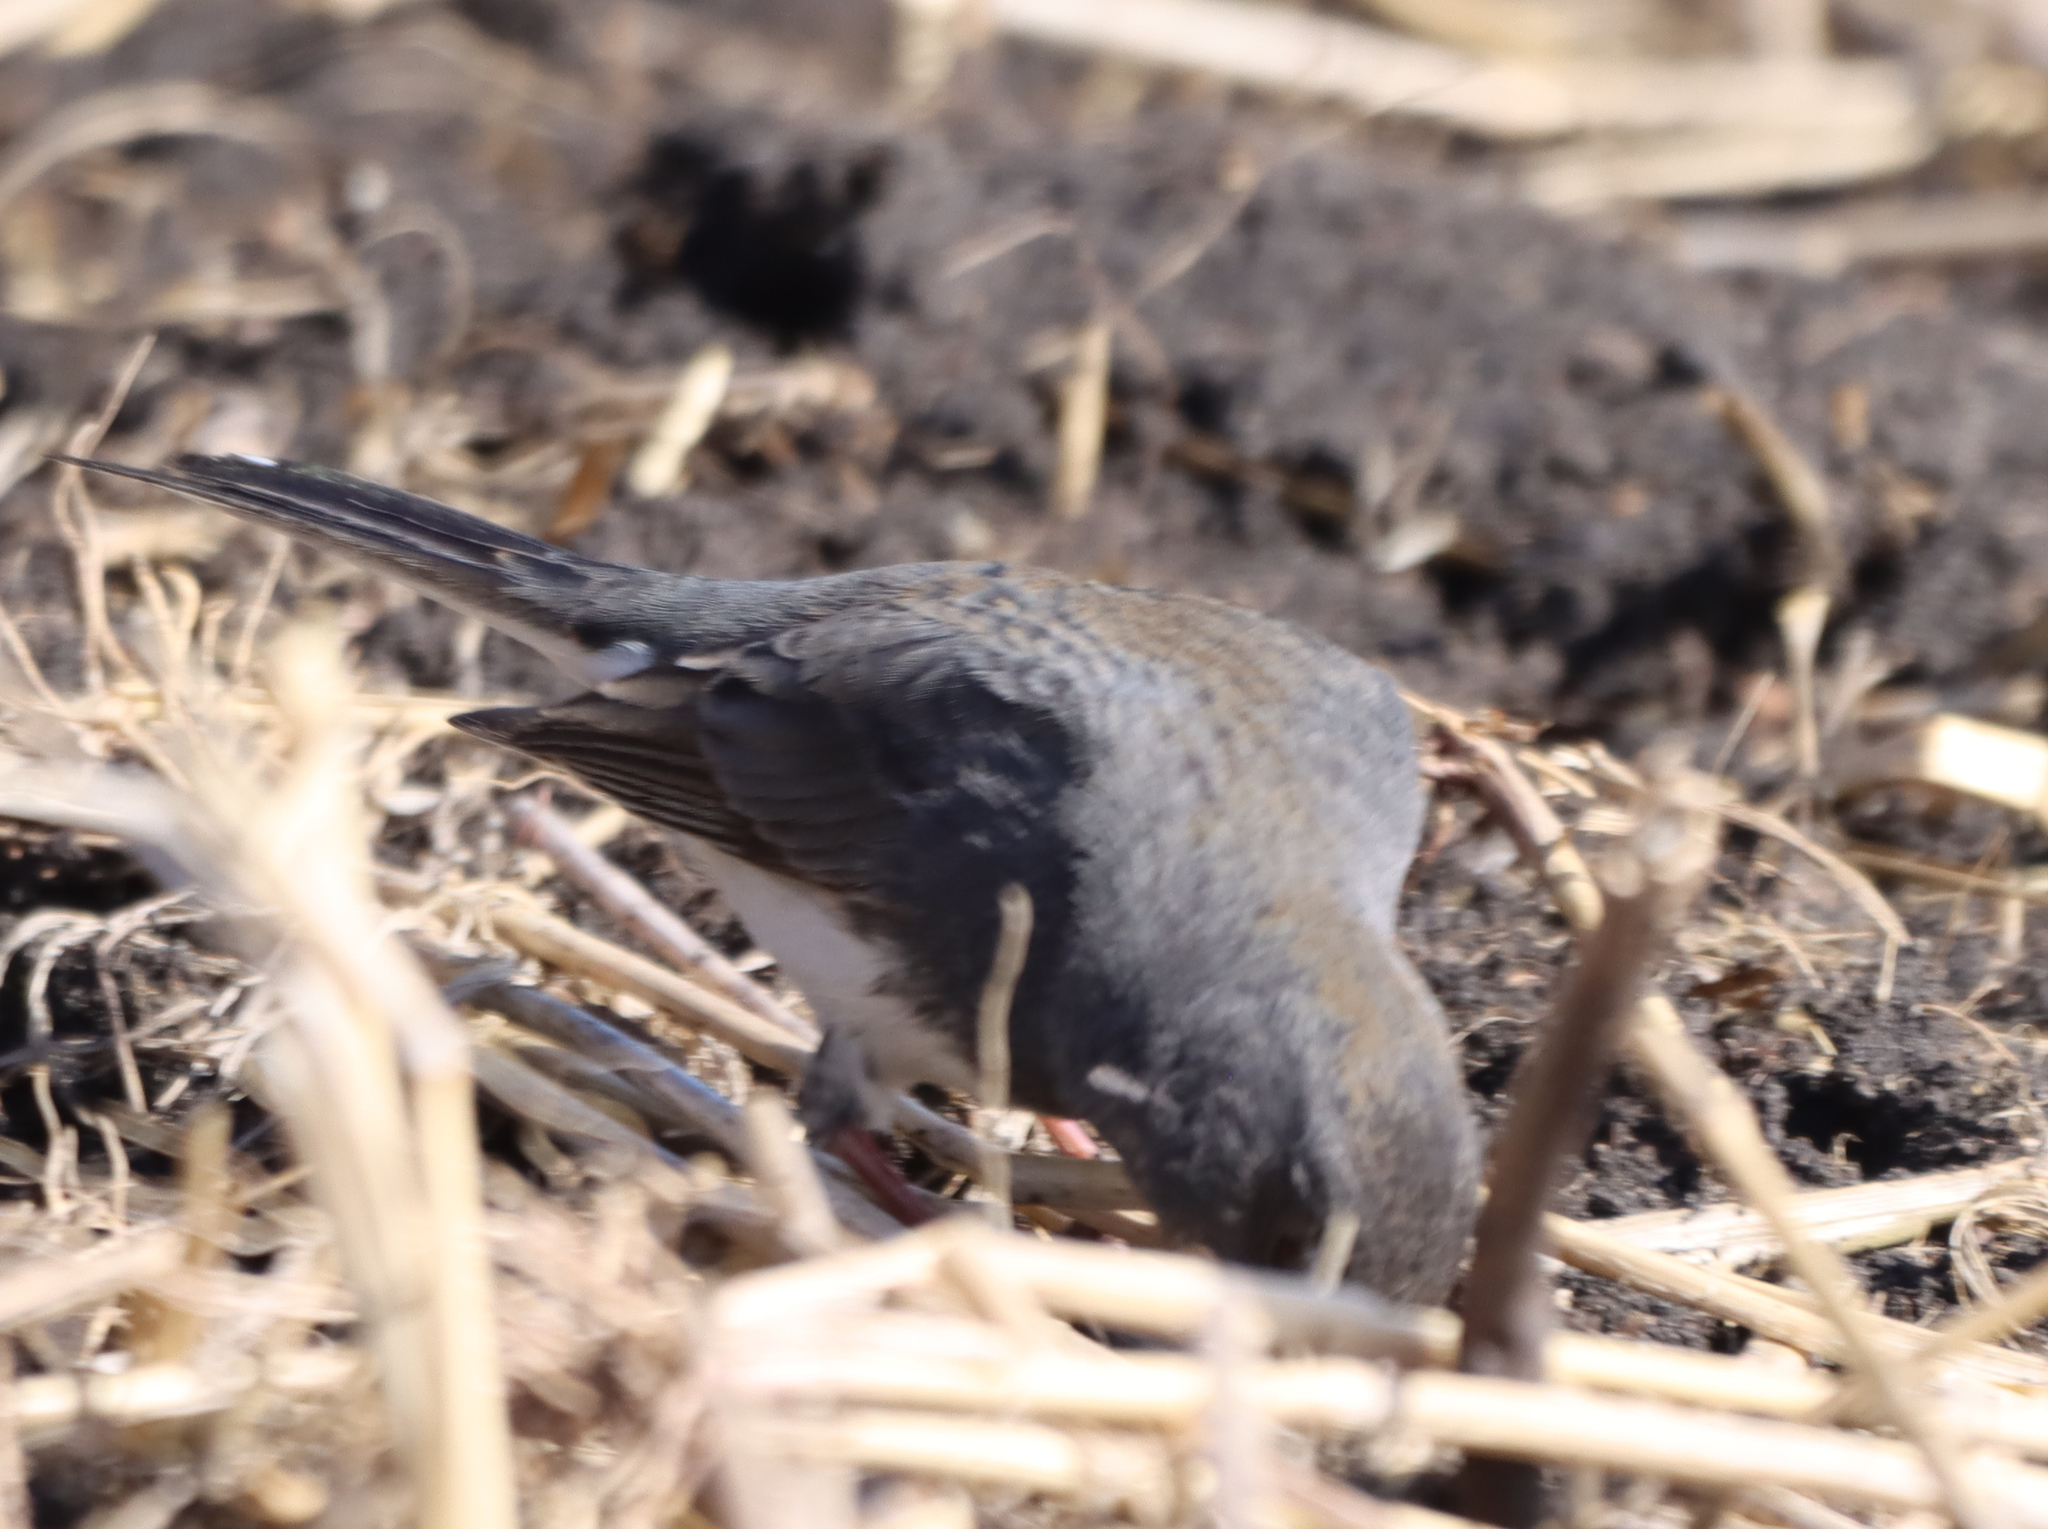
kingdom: Animalia
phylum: Chordata
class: Aves
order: Passeriformes
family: Passerellidae
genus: Junco
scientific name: Junco hyemalis
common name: Dark-eyed junco
